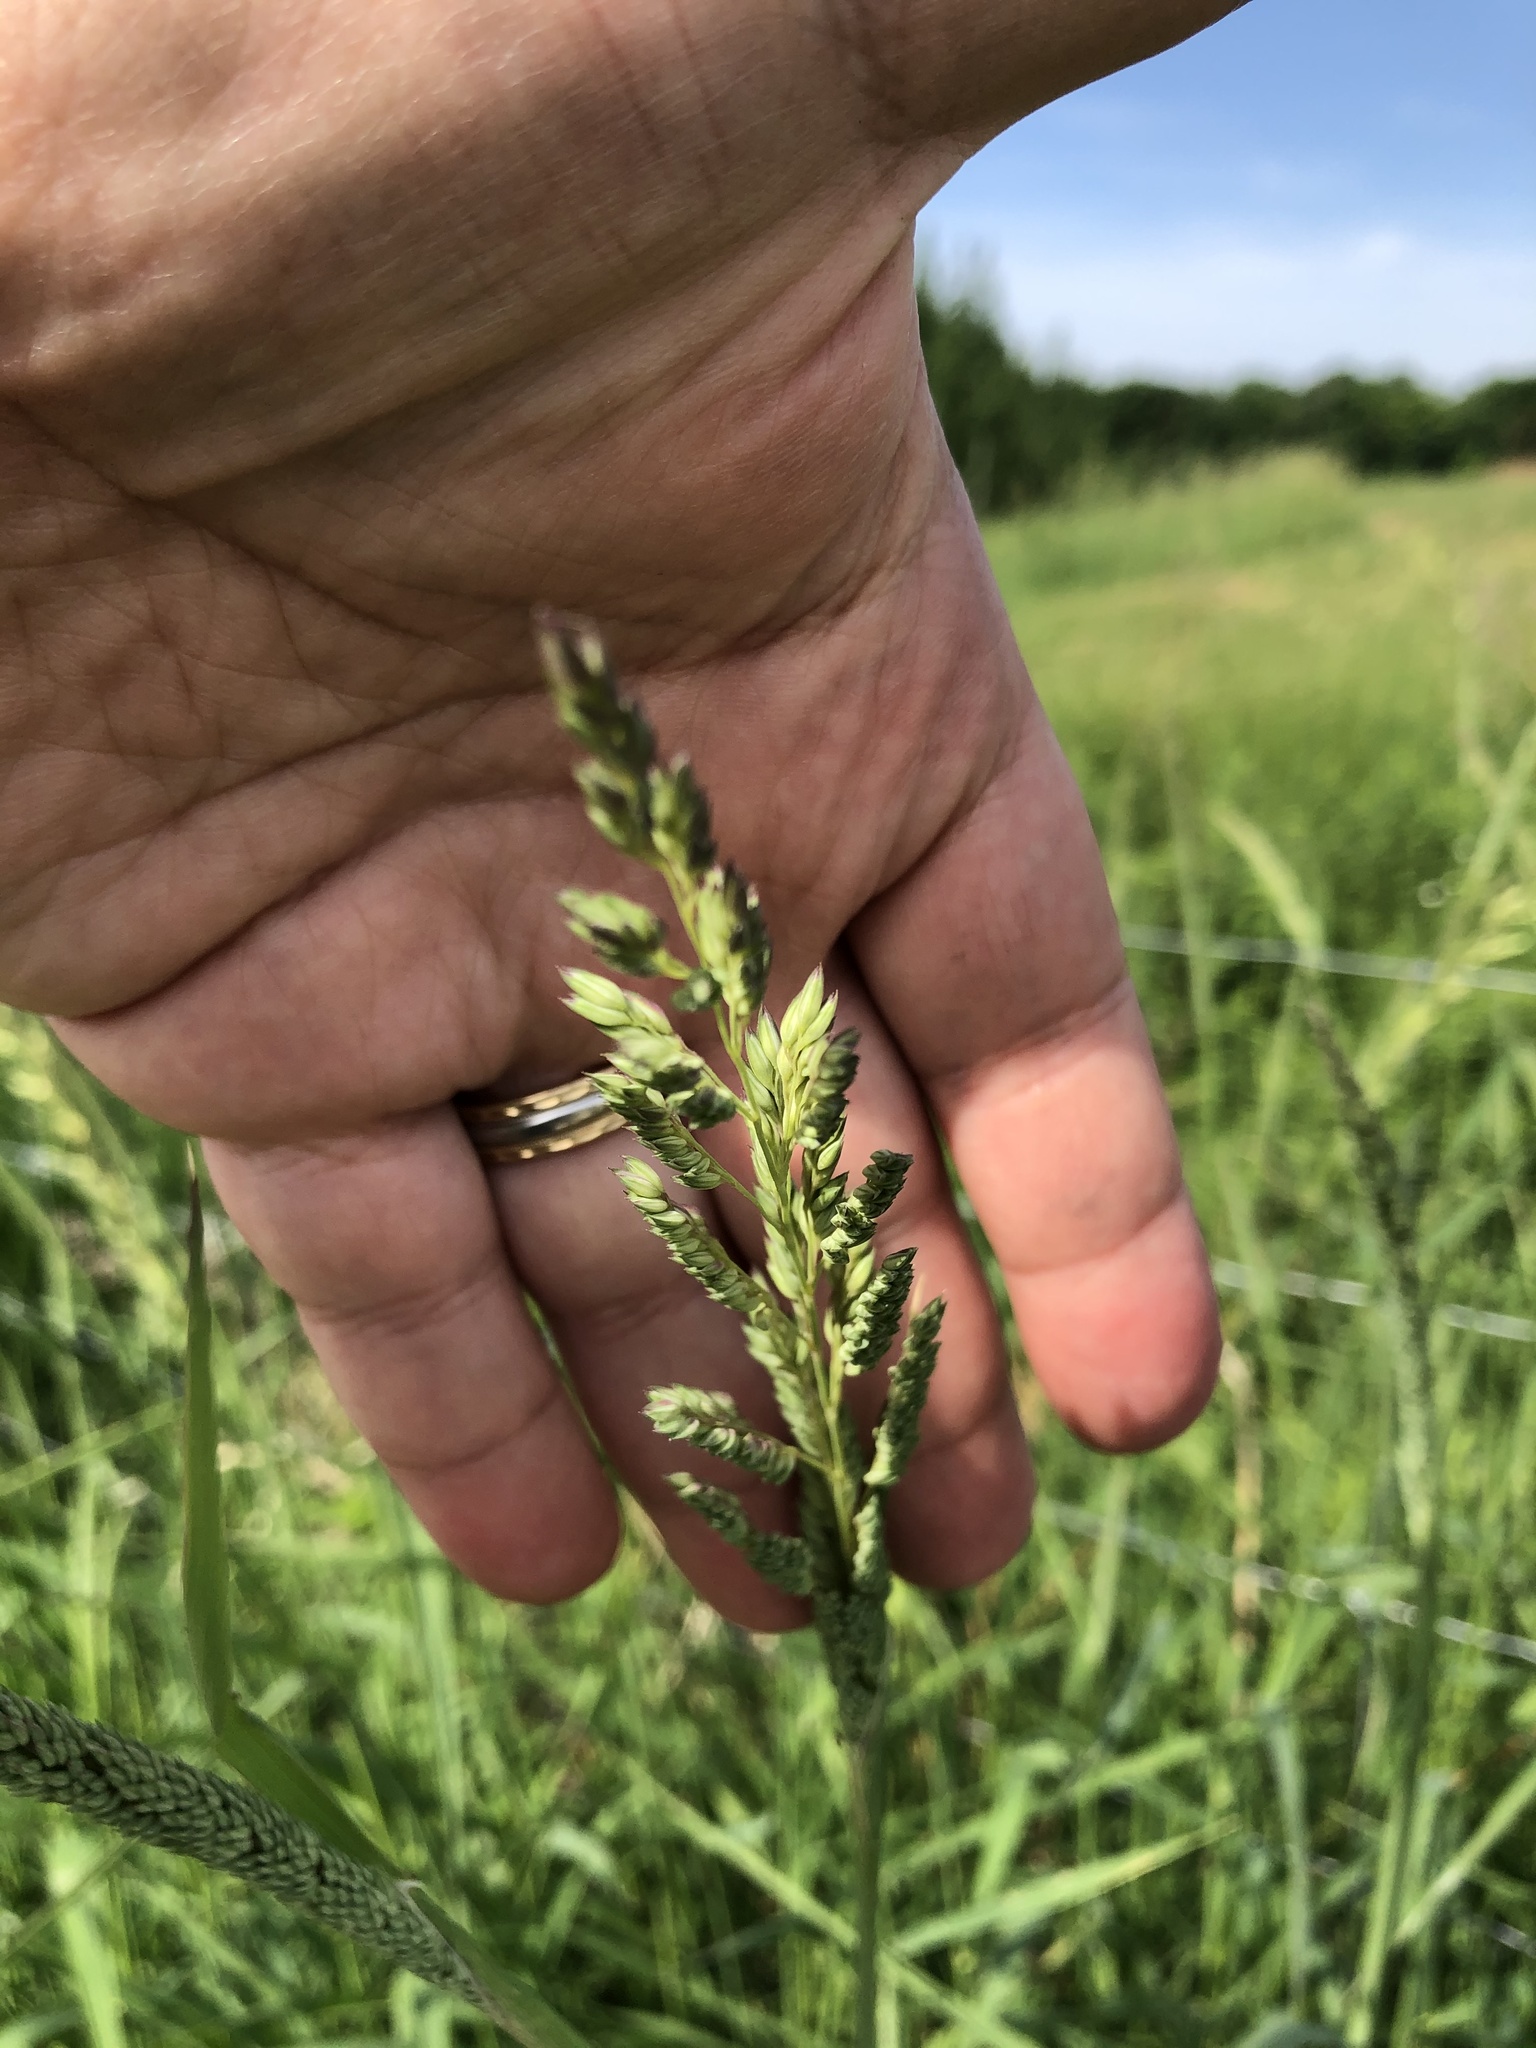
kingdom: Plantae
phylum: Tracheophyta
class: Liliopsida
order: Poales
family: Poaceae
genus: Phalaris
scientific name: Phalaris arundinacea
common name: Reed canary-grass
